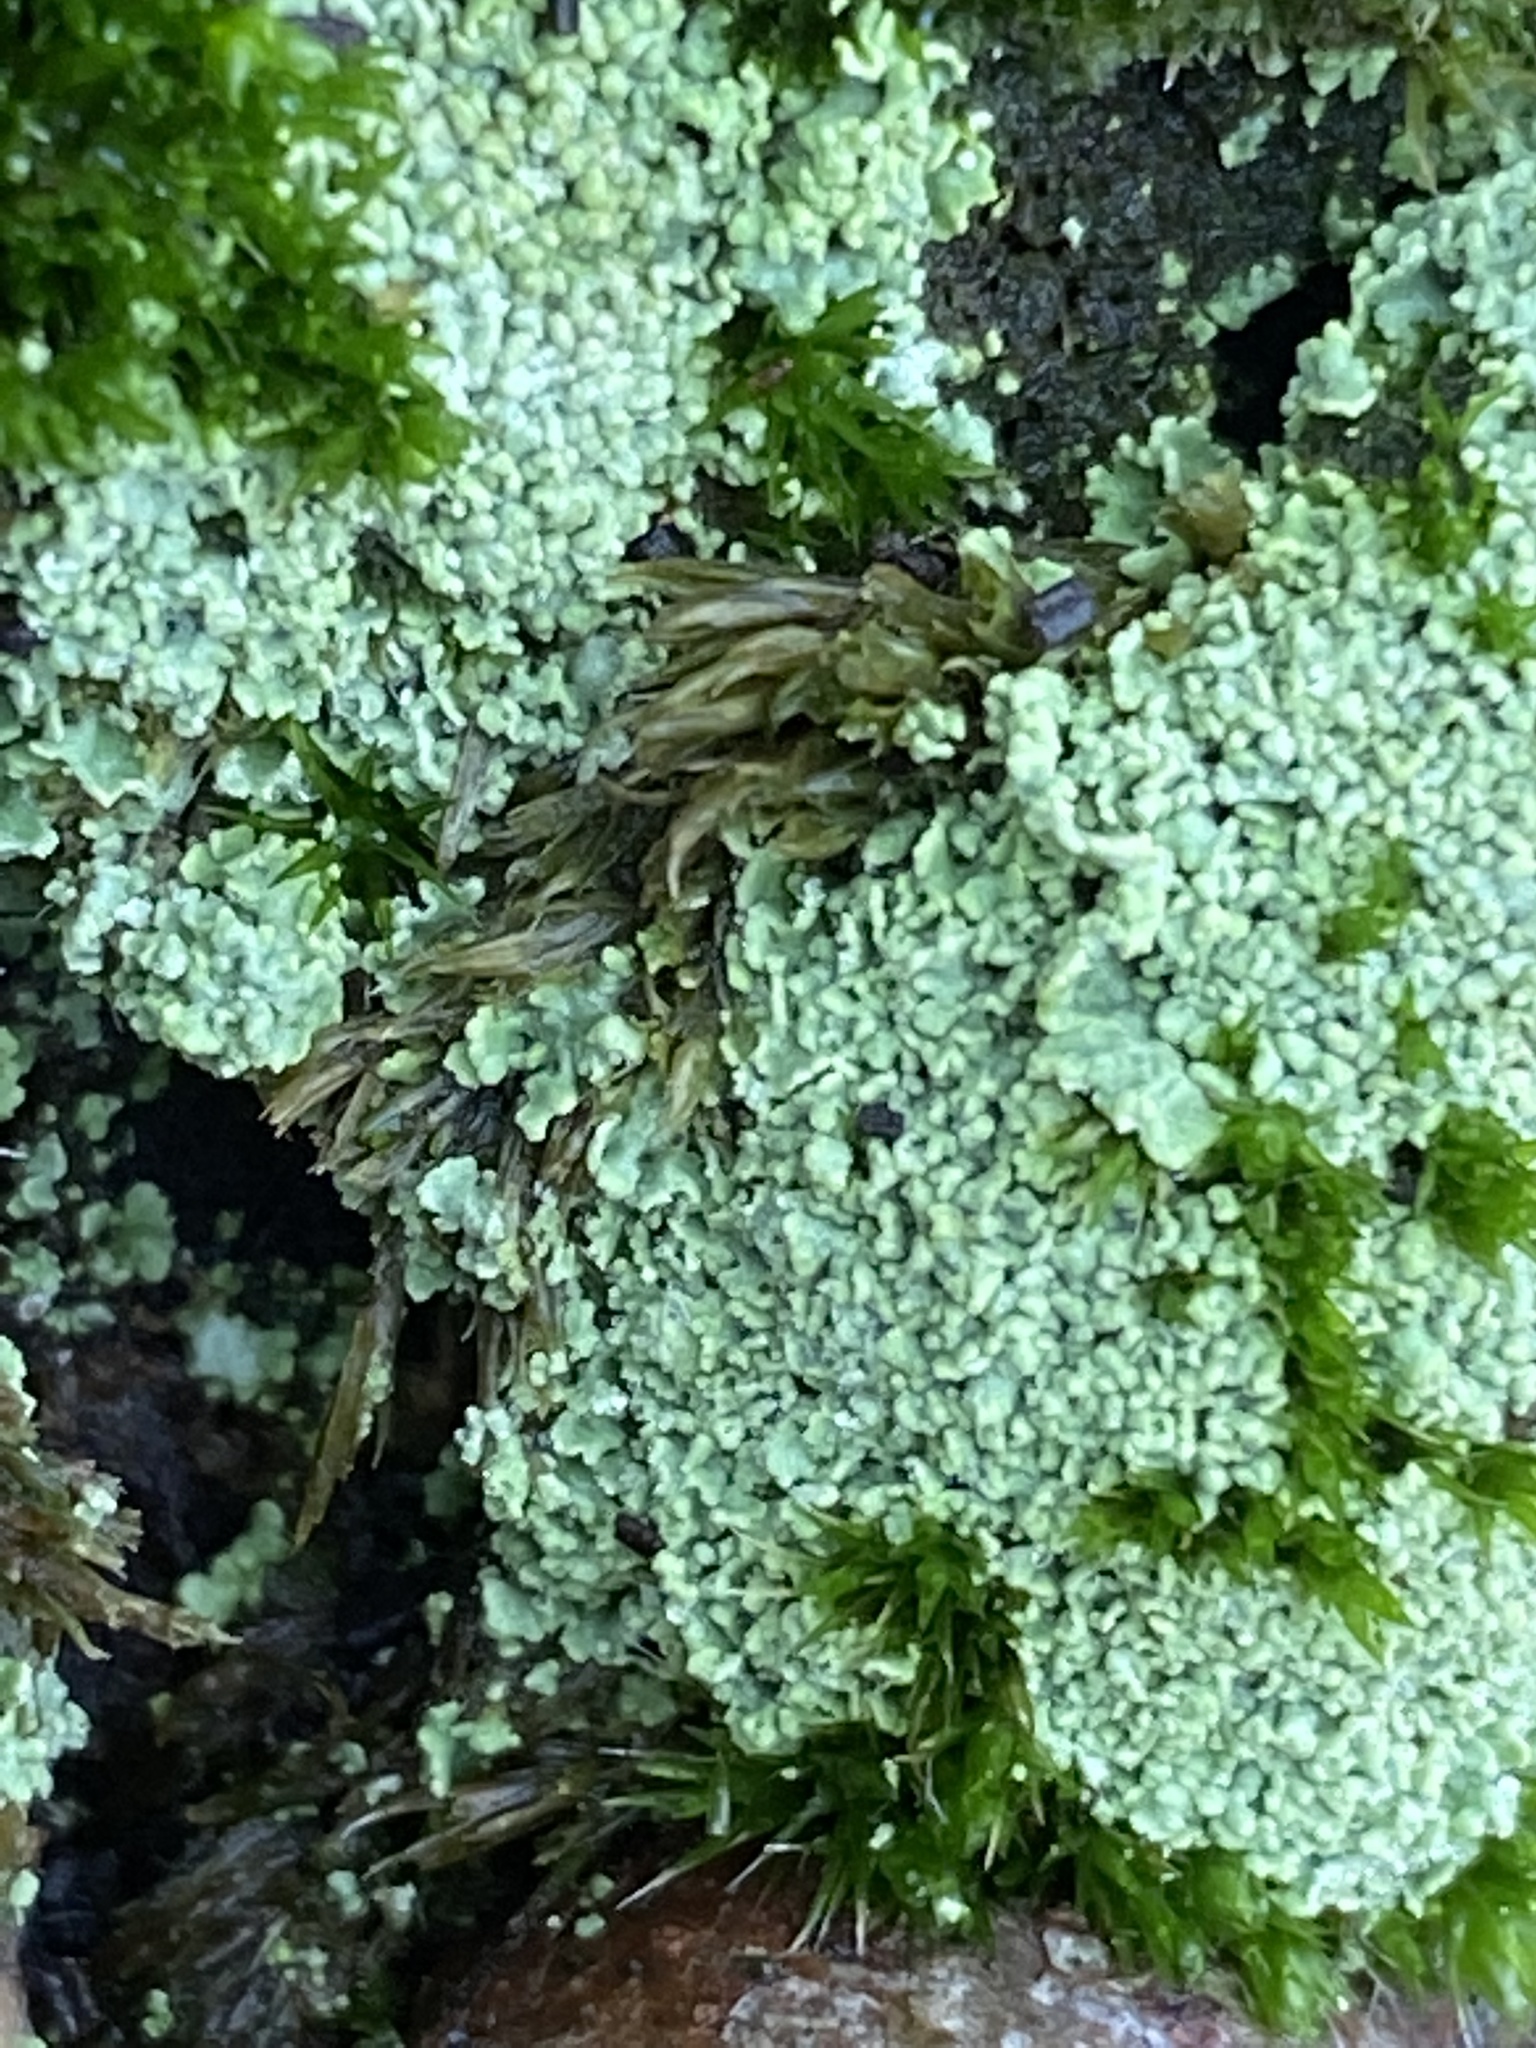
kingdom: Fungi
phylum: Ascomycota
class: Lecanoromycetes
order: Lecanorales
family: Cladoniaceae
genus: Cladonia
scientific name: Cladonia
